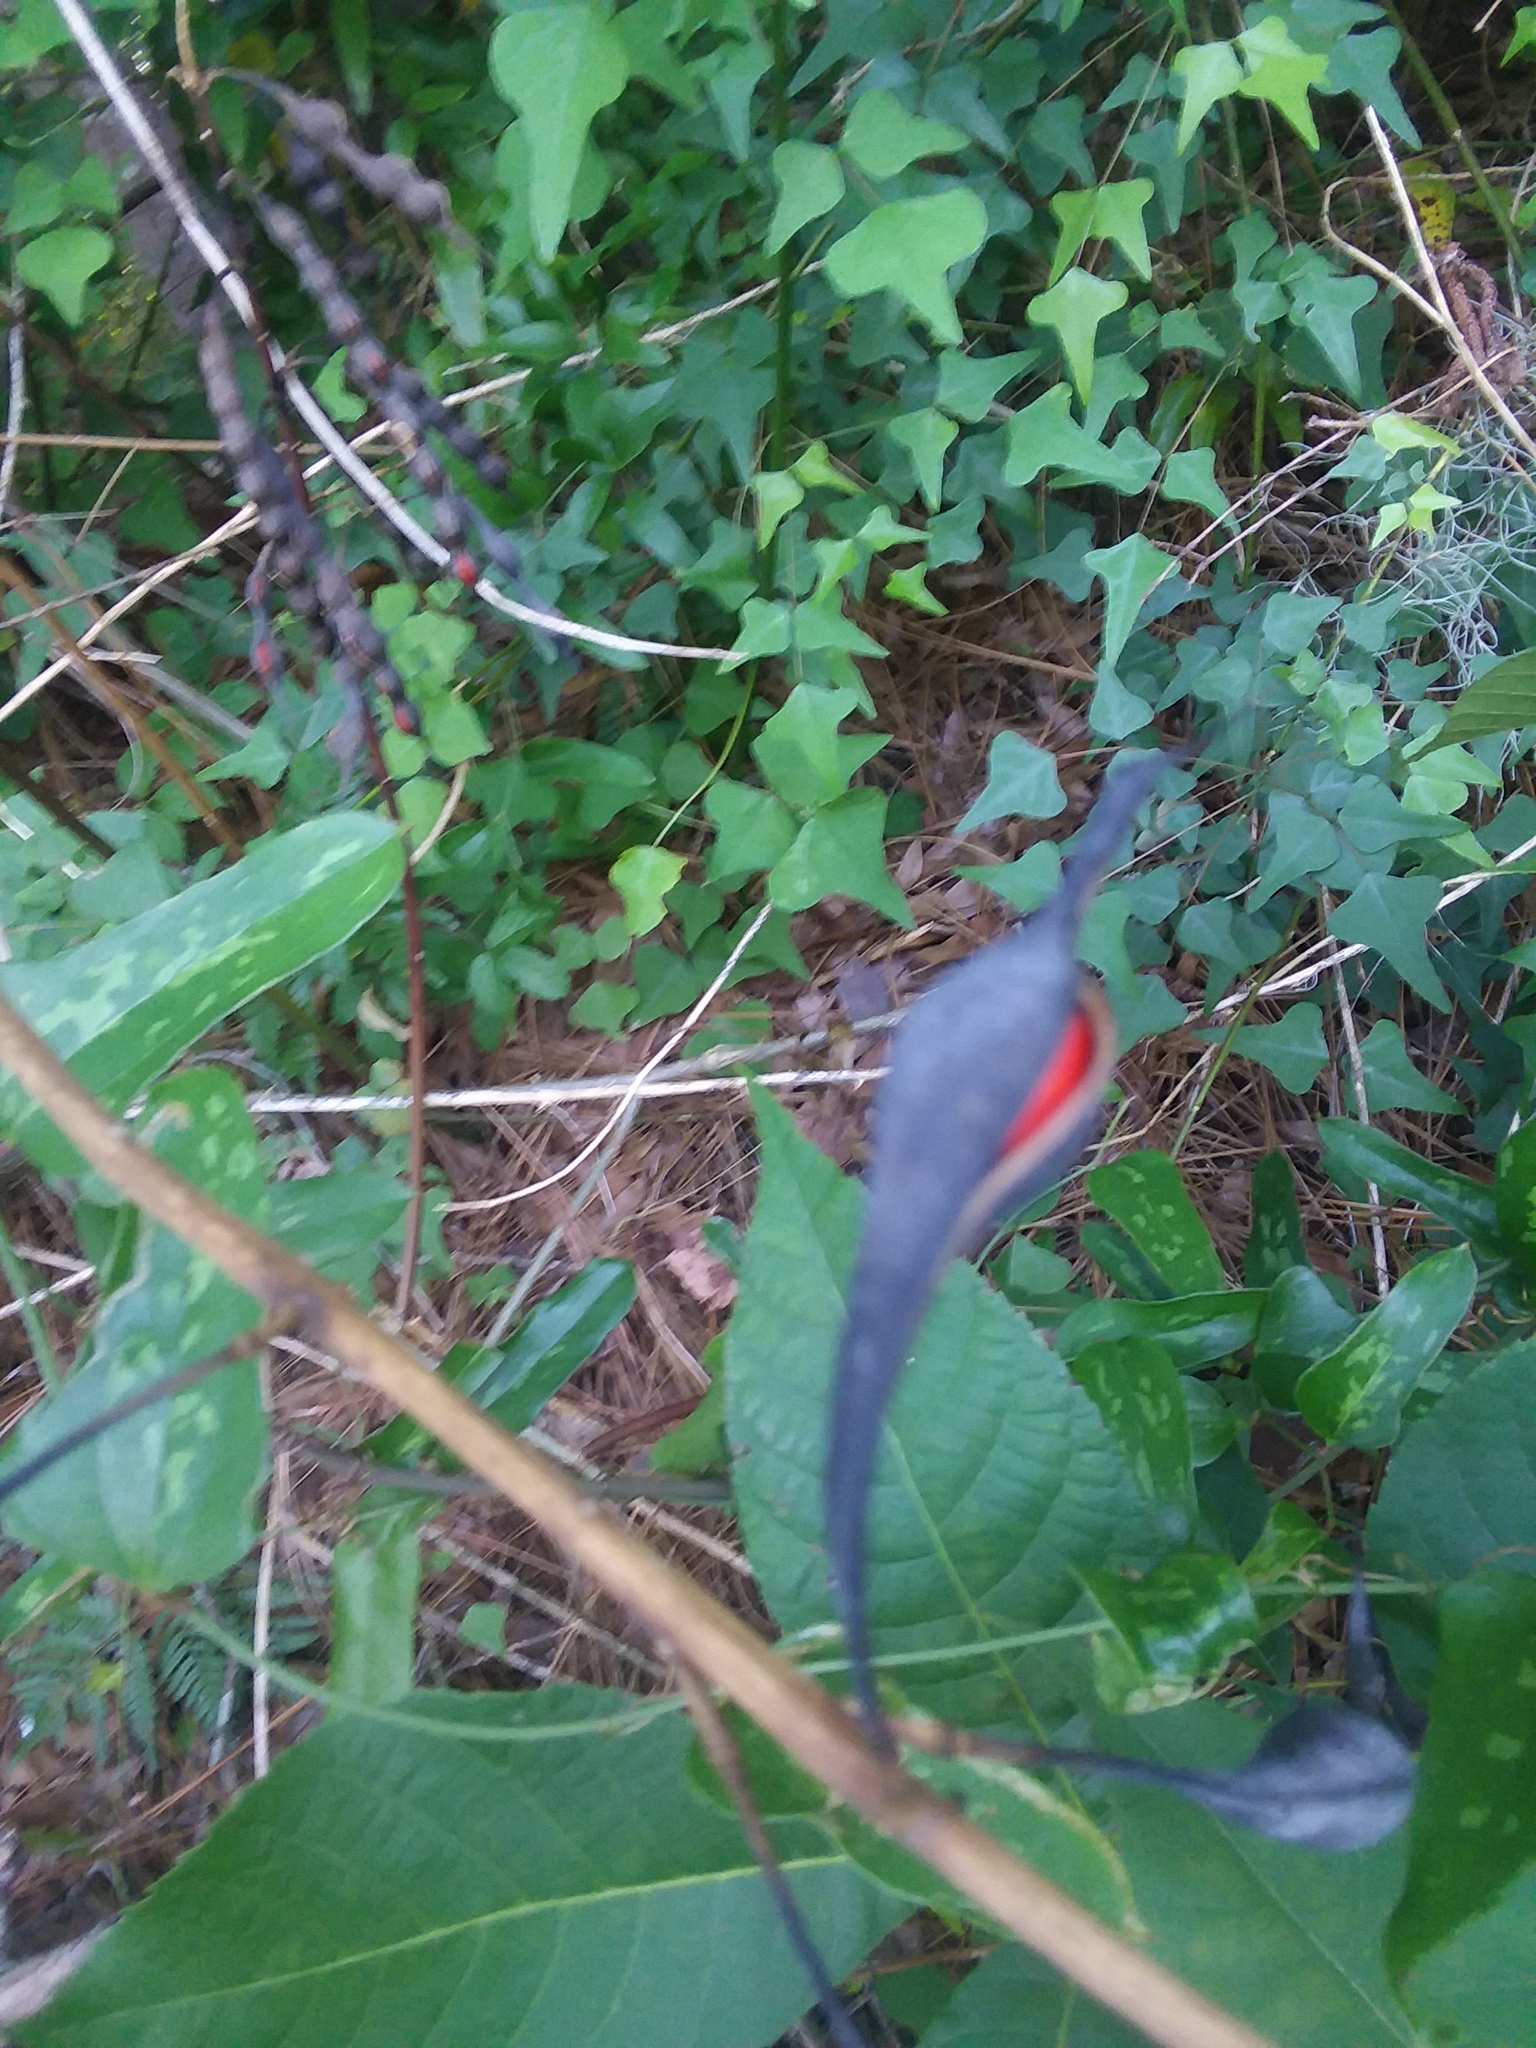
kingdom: Plantae
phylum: Tracheophyta
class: Magnoliopsida
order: Fabales
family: Fabaceae
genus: Erythrina
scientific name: Erythrina herbacea
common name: Coral-bean
